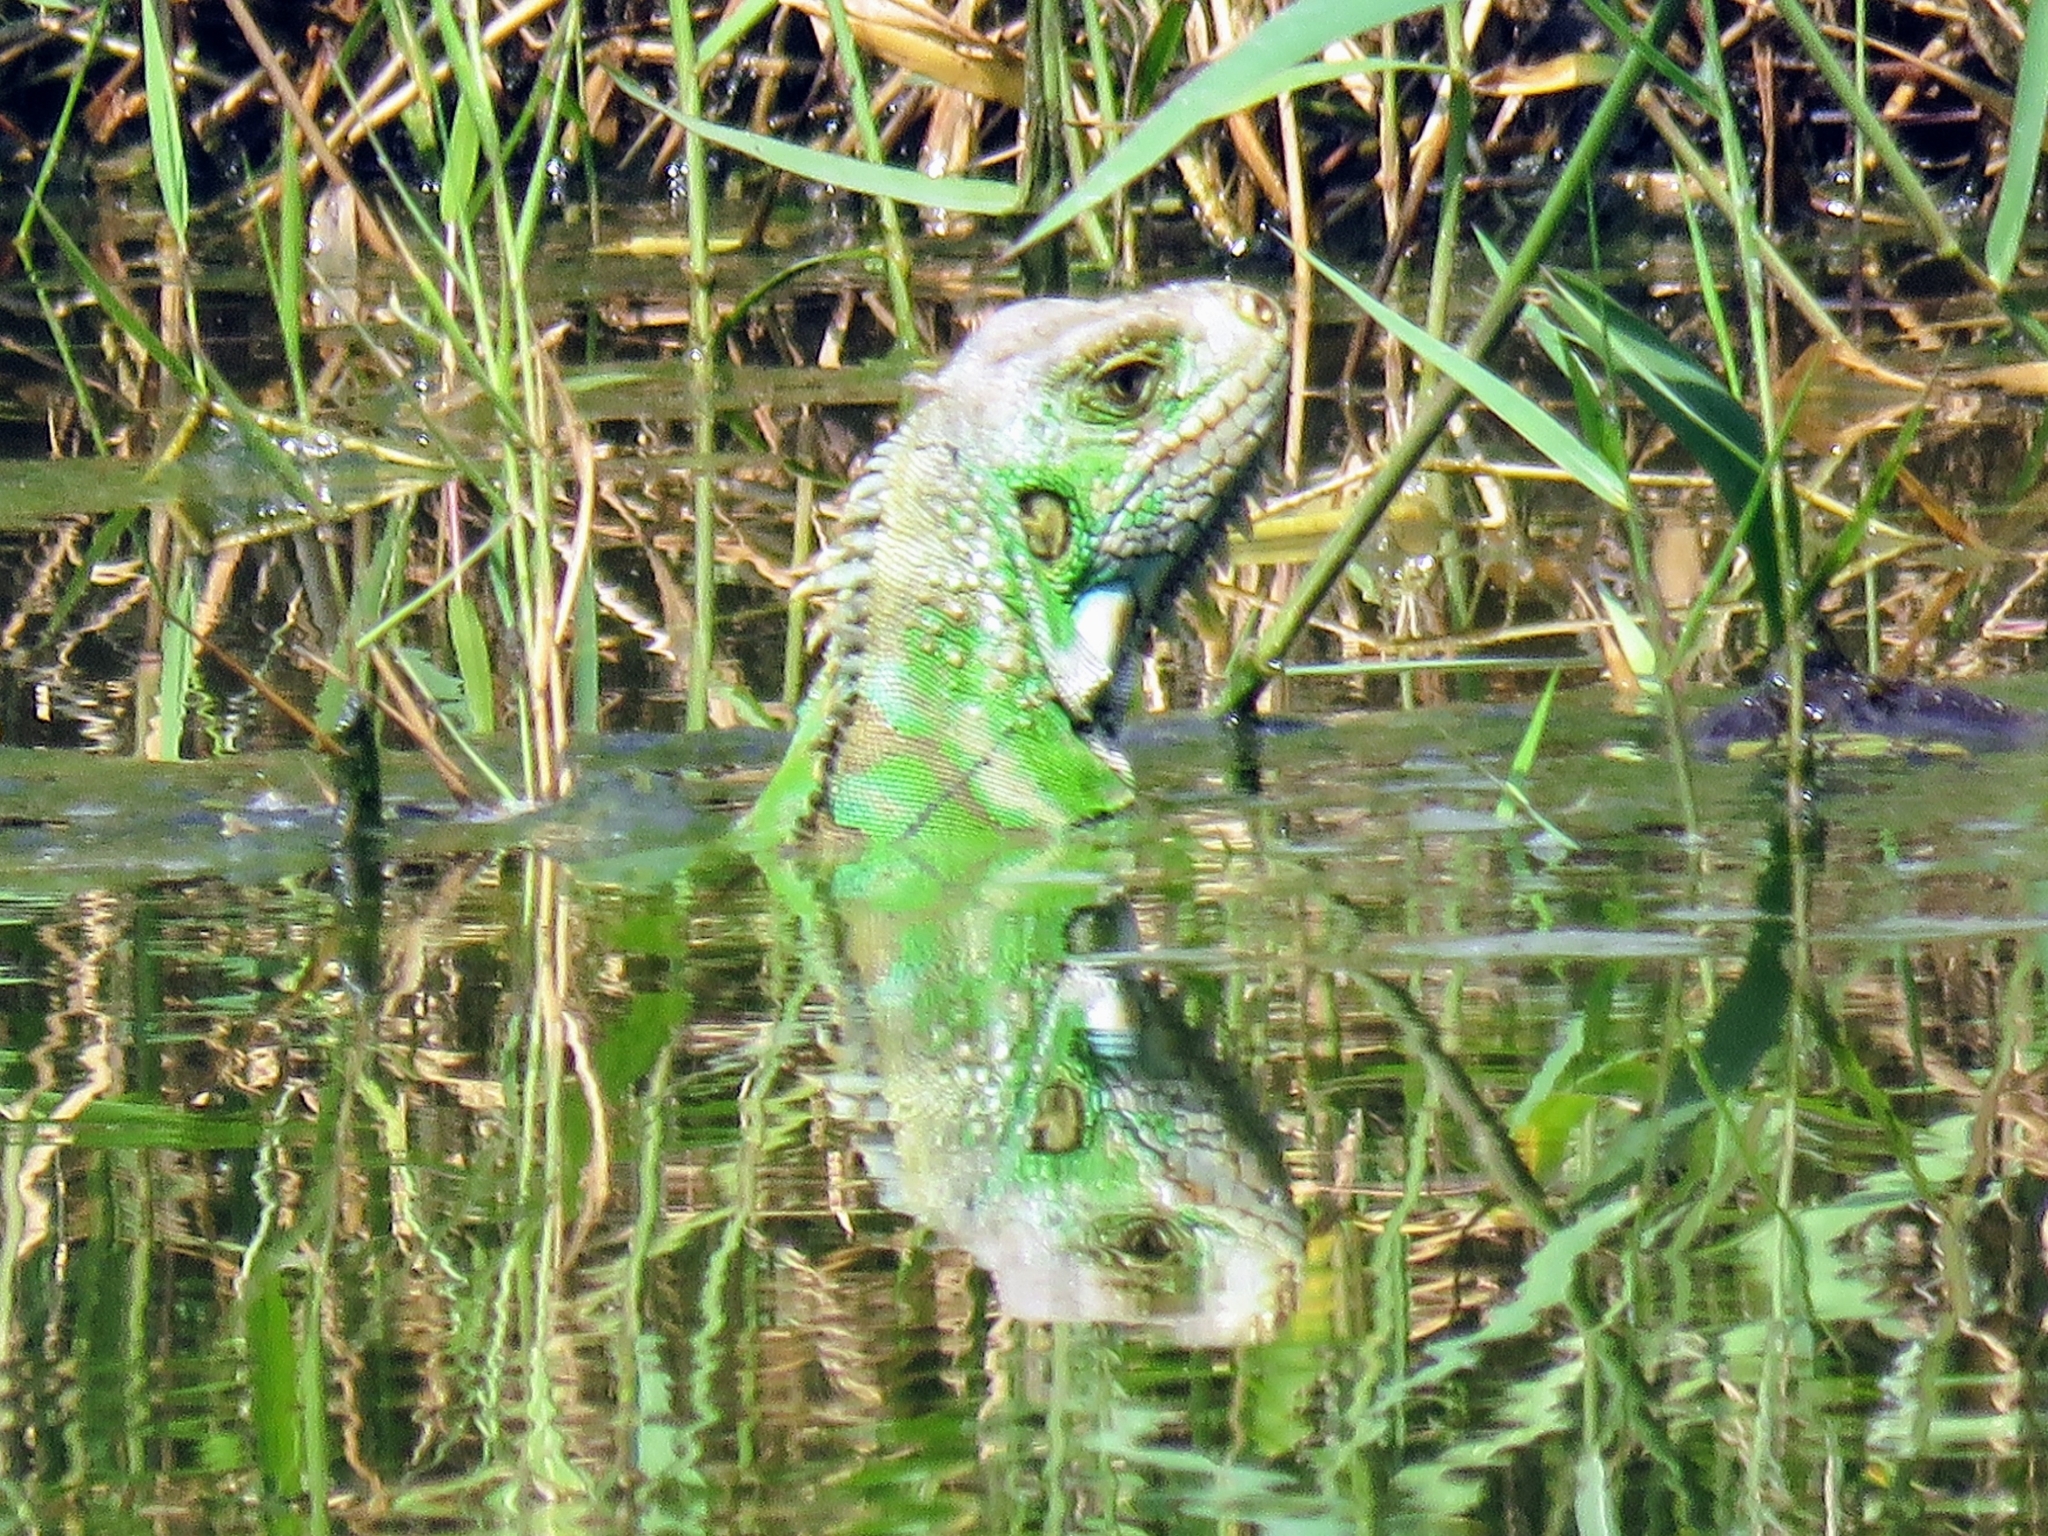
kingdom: Animalia
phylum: Chordata
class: Squamata
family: Iguanidae
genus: Iguana
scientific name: Iguana iguana
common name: Green iguana
